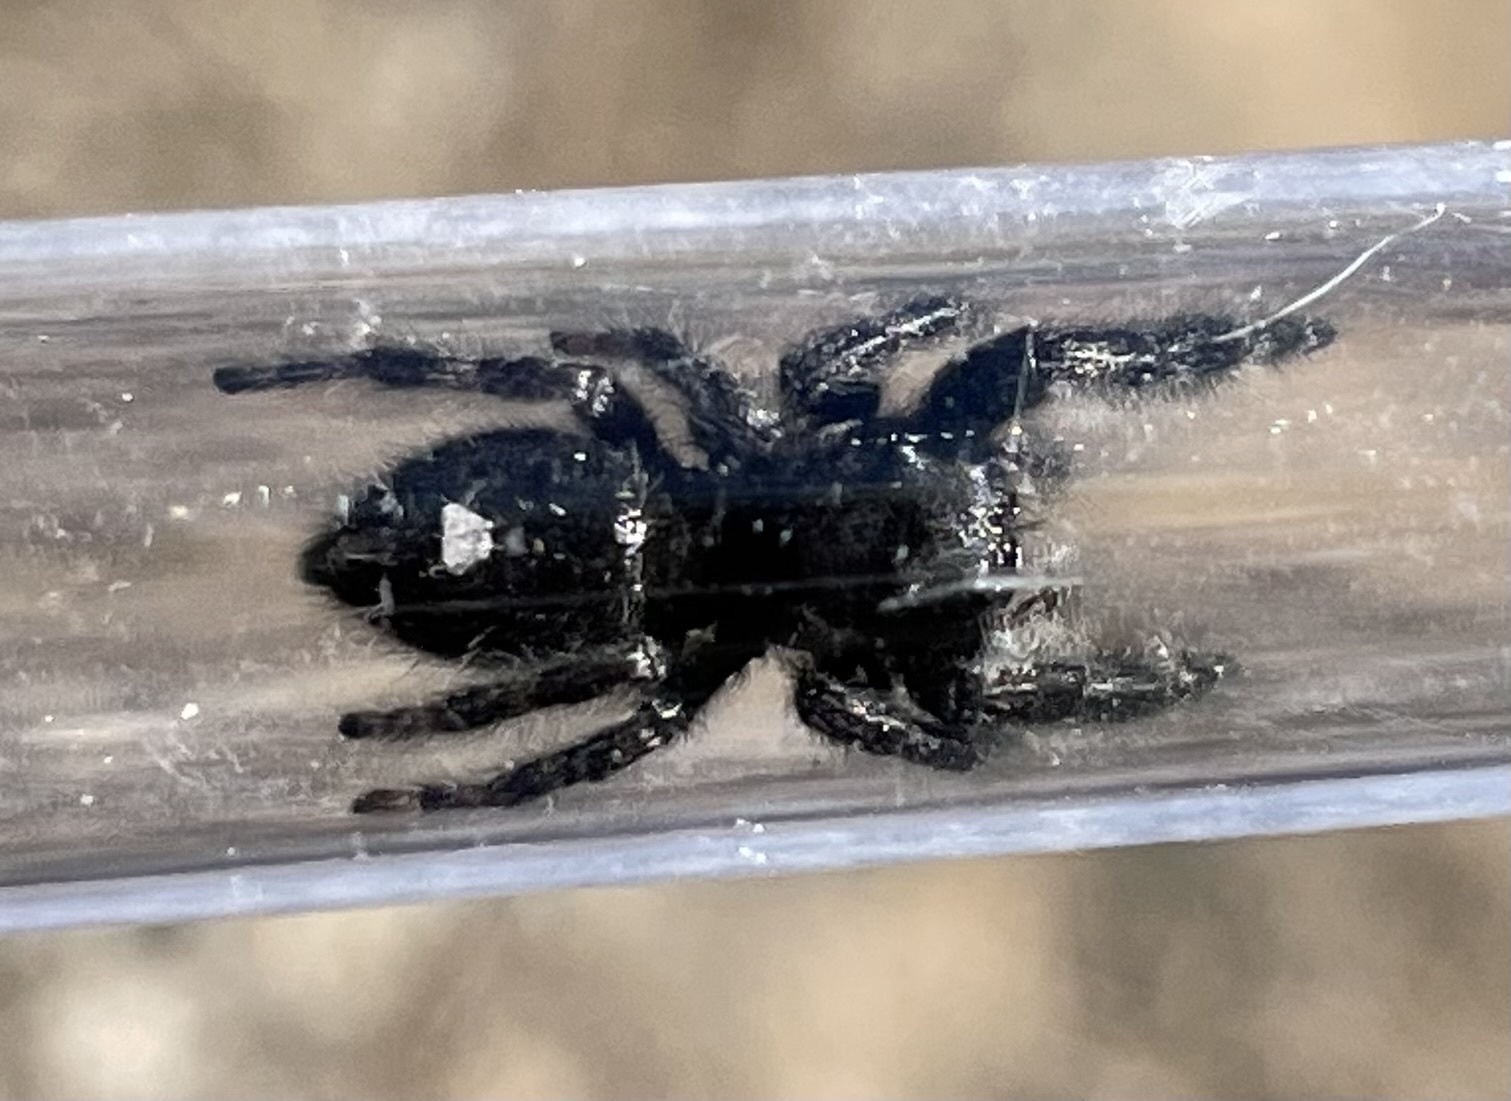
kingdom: Animalia
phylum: Arthropoda
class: Arachnida
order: Araneae
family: Salticidae
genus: Phidippus
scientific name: Phidippus audax
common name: Bold jumper
